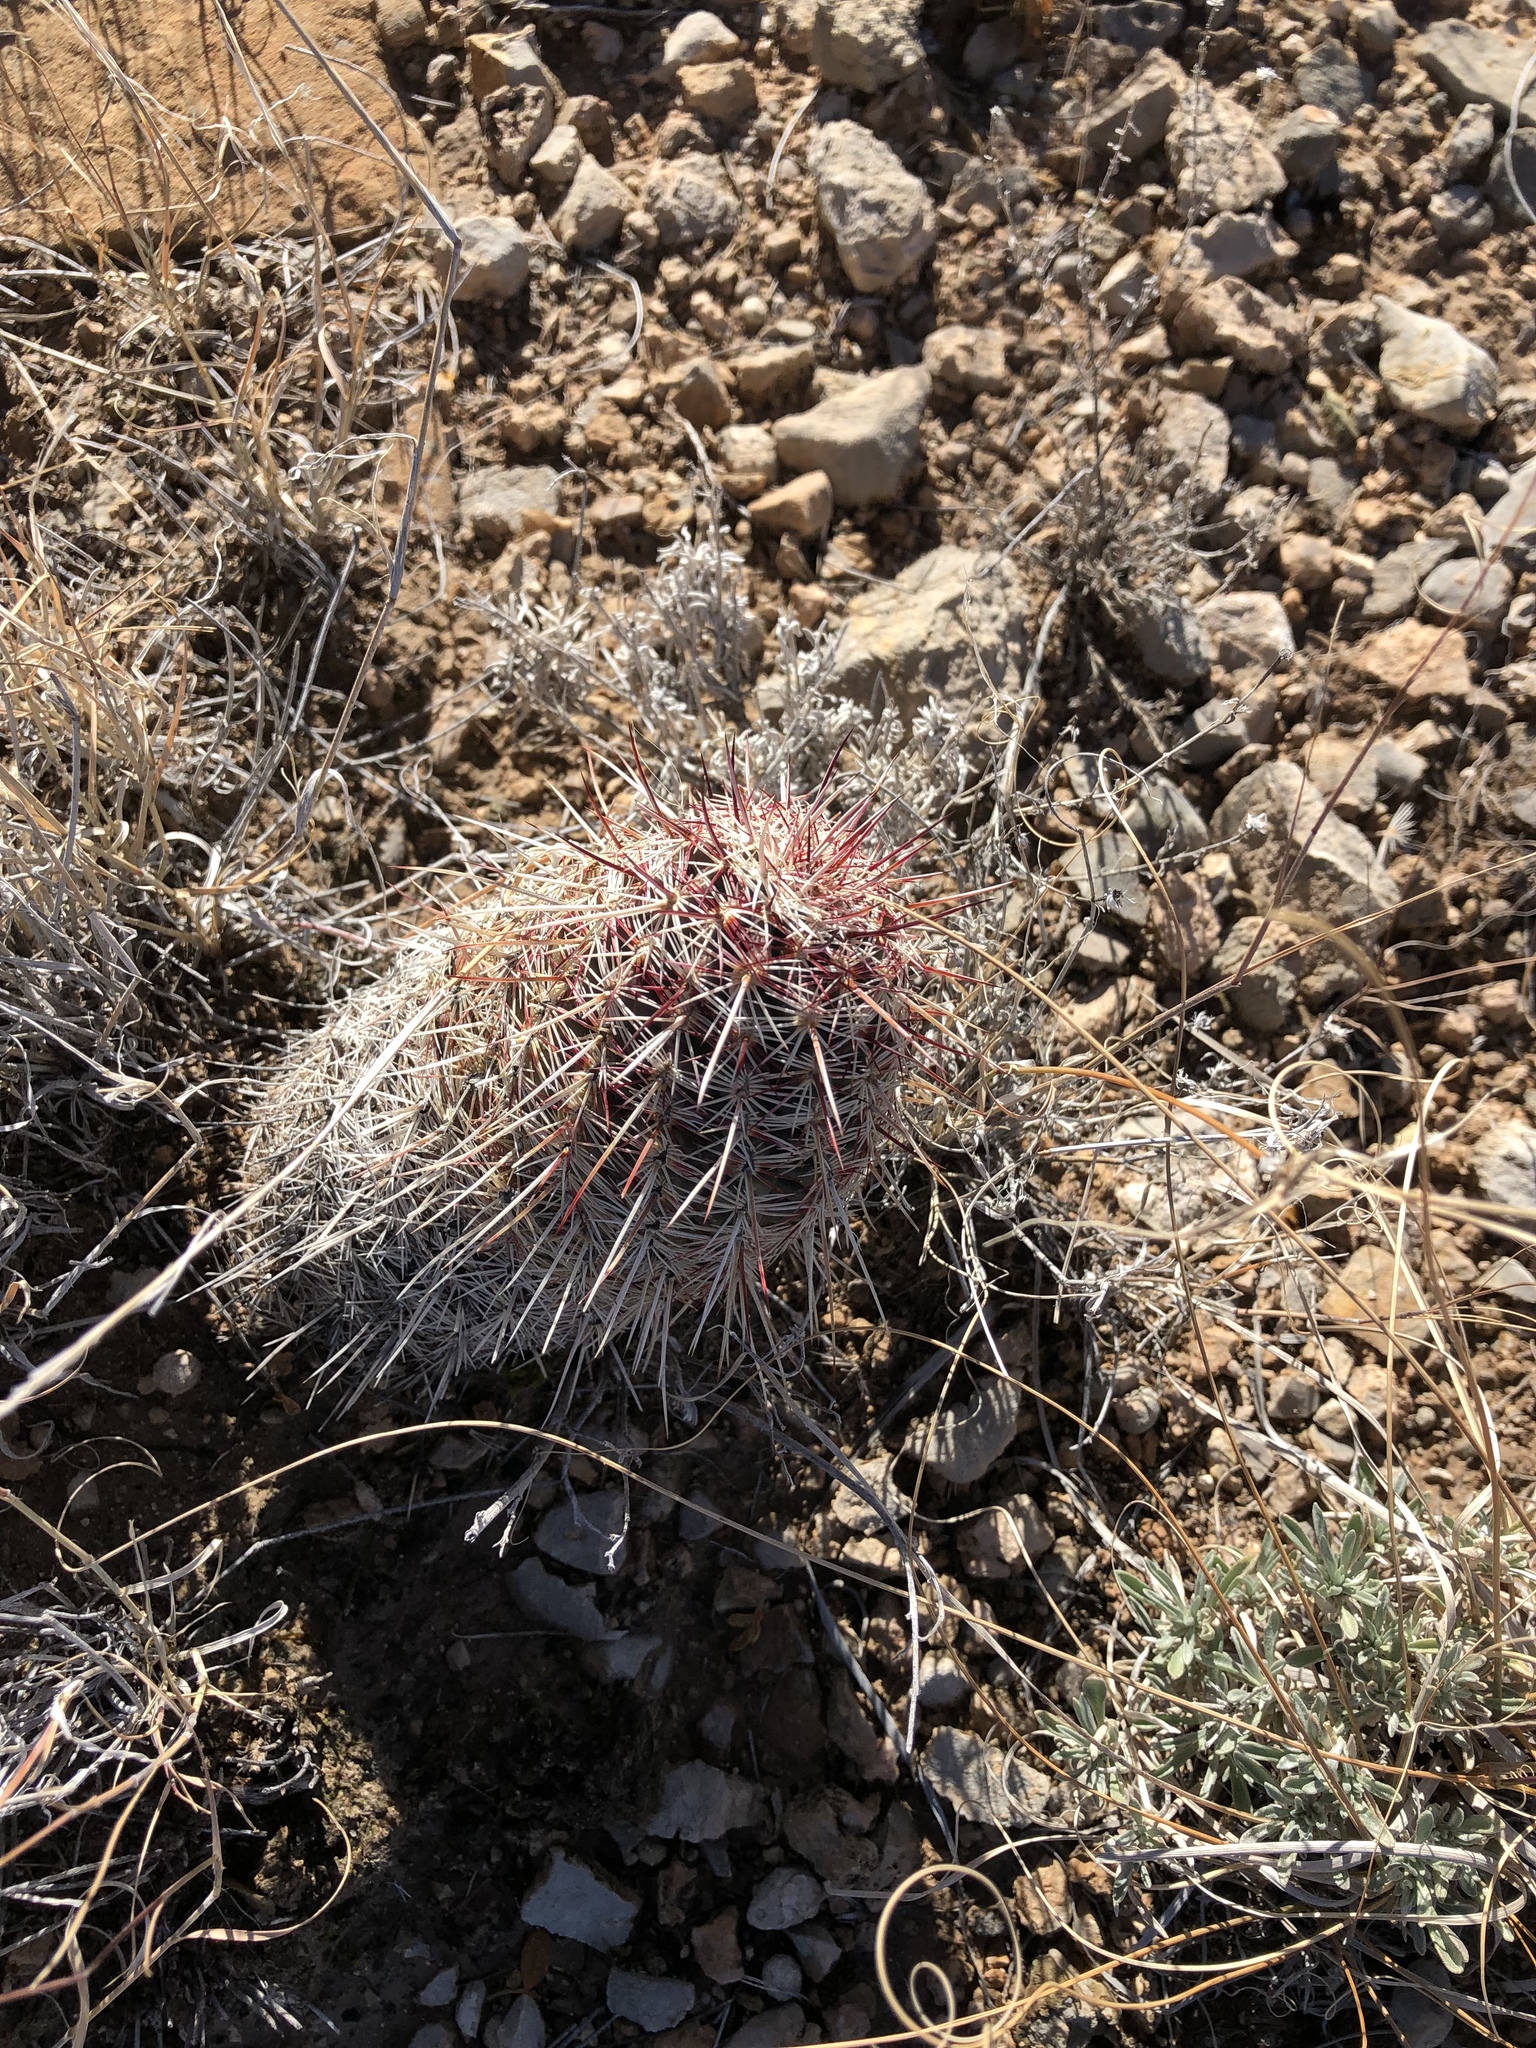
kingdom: Plantae
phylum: Tracheophyta
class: Magnoliopsida
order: Caryophyllales
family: Cactaceae
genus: Echinocereus
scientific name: Echinocereus viridiflorus
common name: Nylon hedgehog cactus
